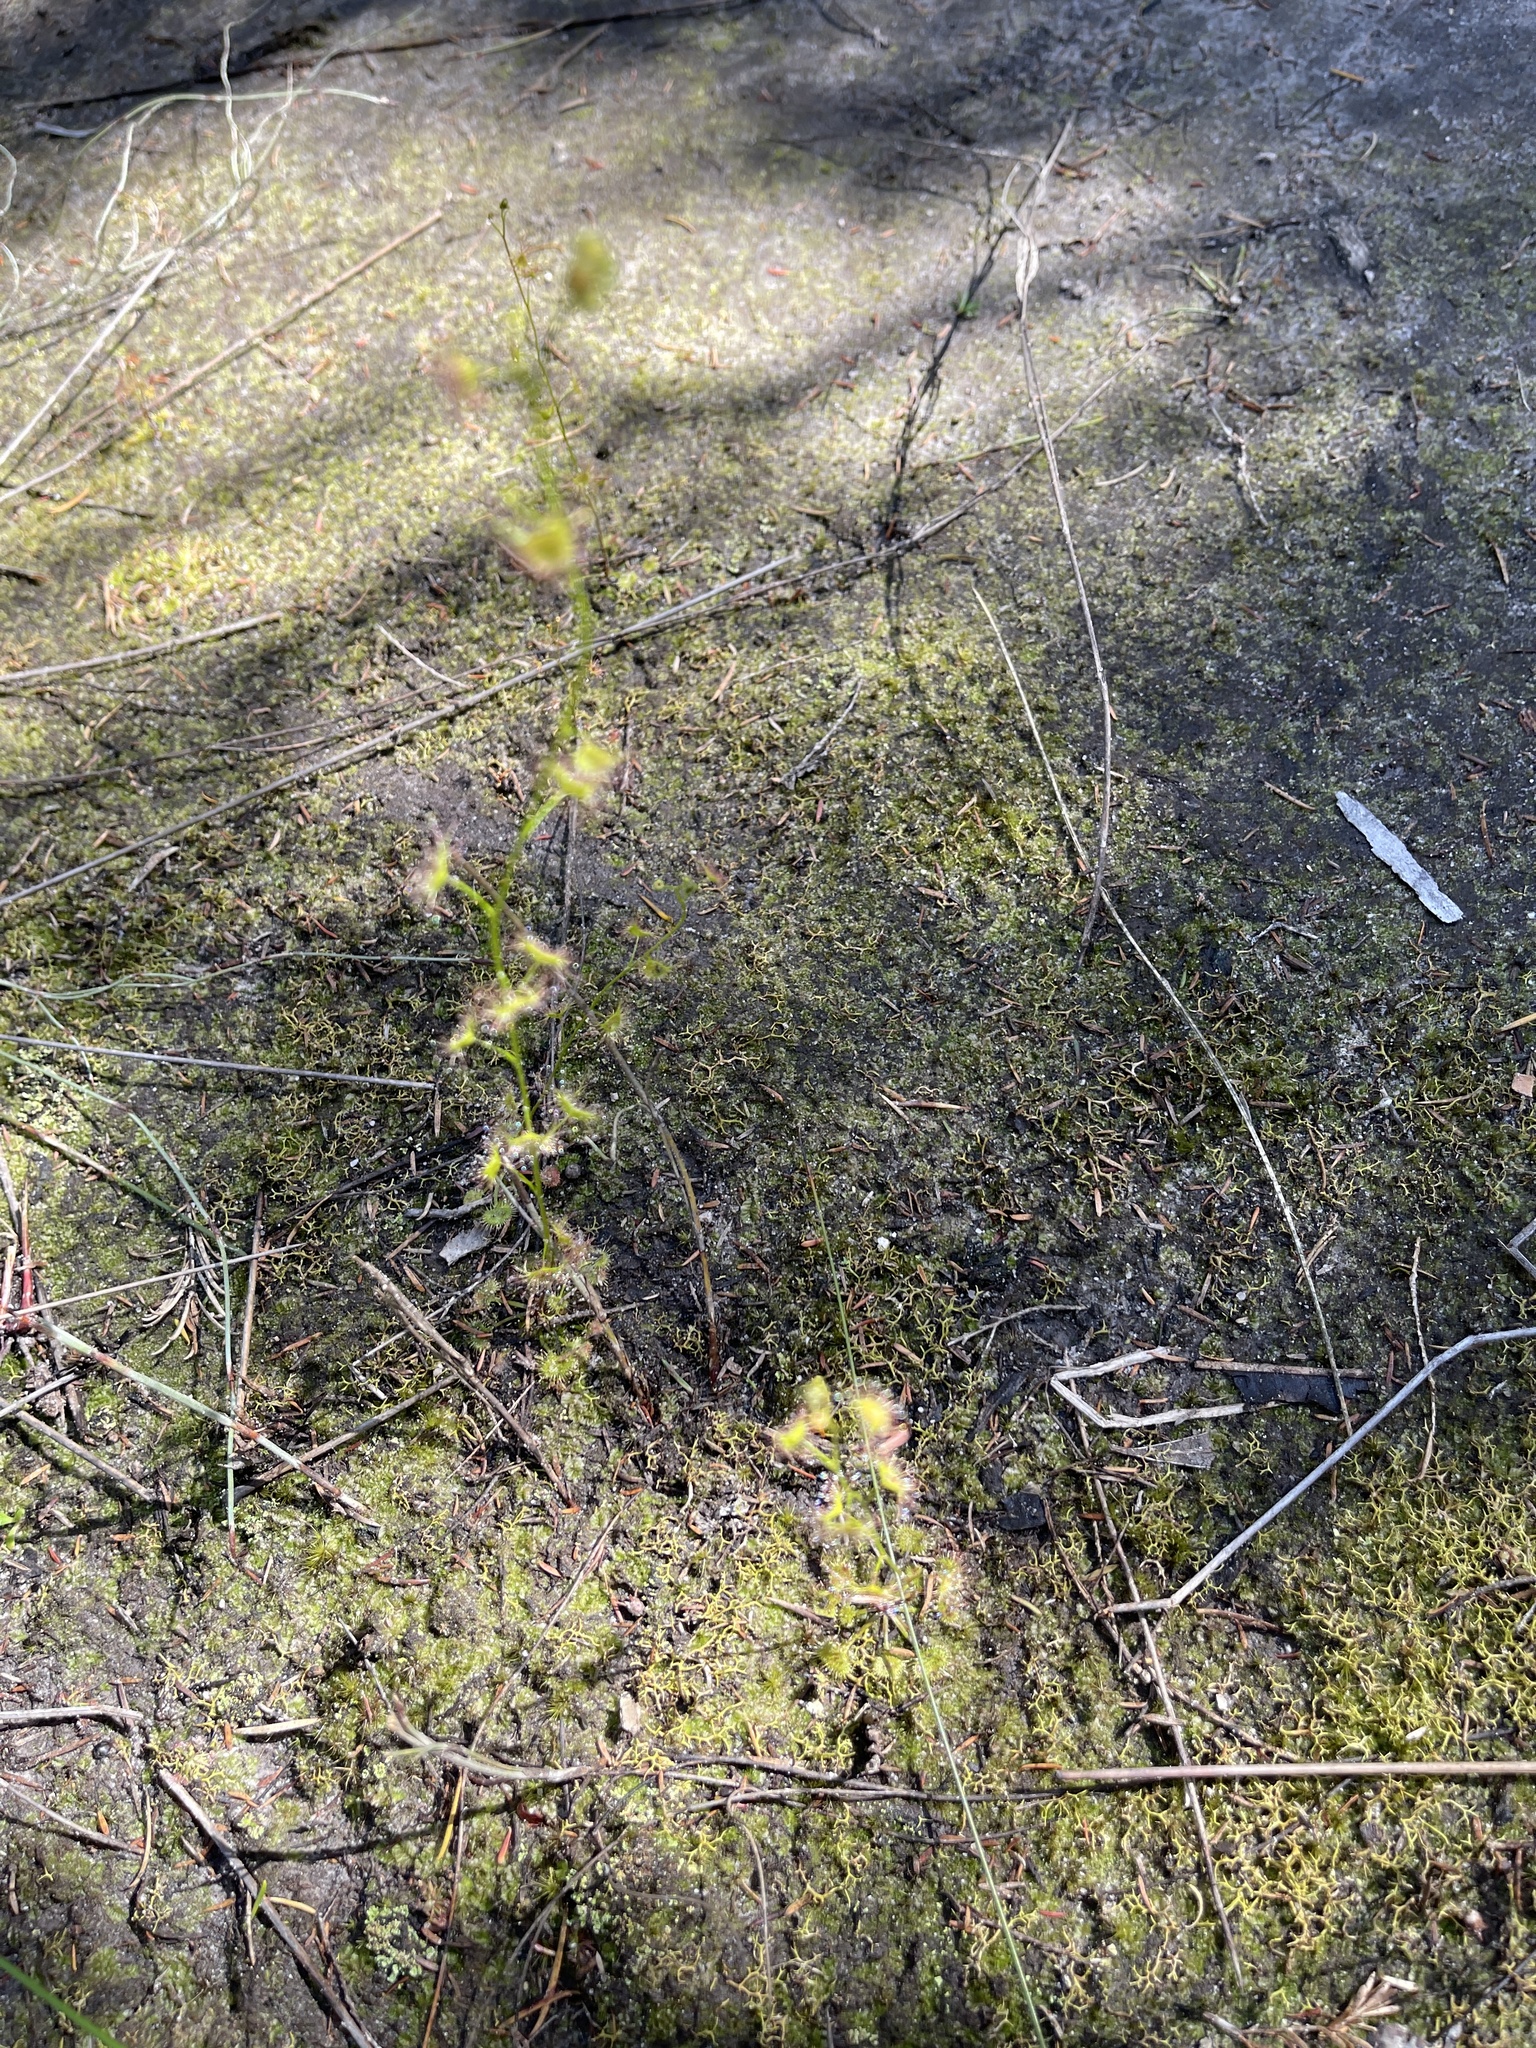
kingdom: Plantae
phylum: Tracheophyta
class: Magnoliopsida
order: Caryophyllales
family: Droseraceae
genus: Drosera
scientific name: Drosera gunniana
